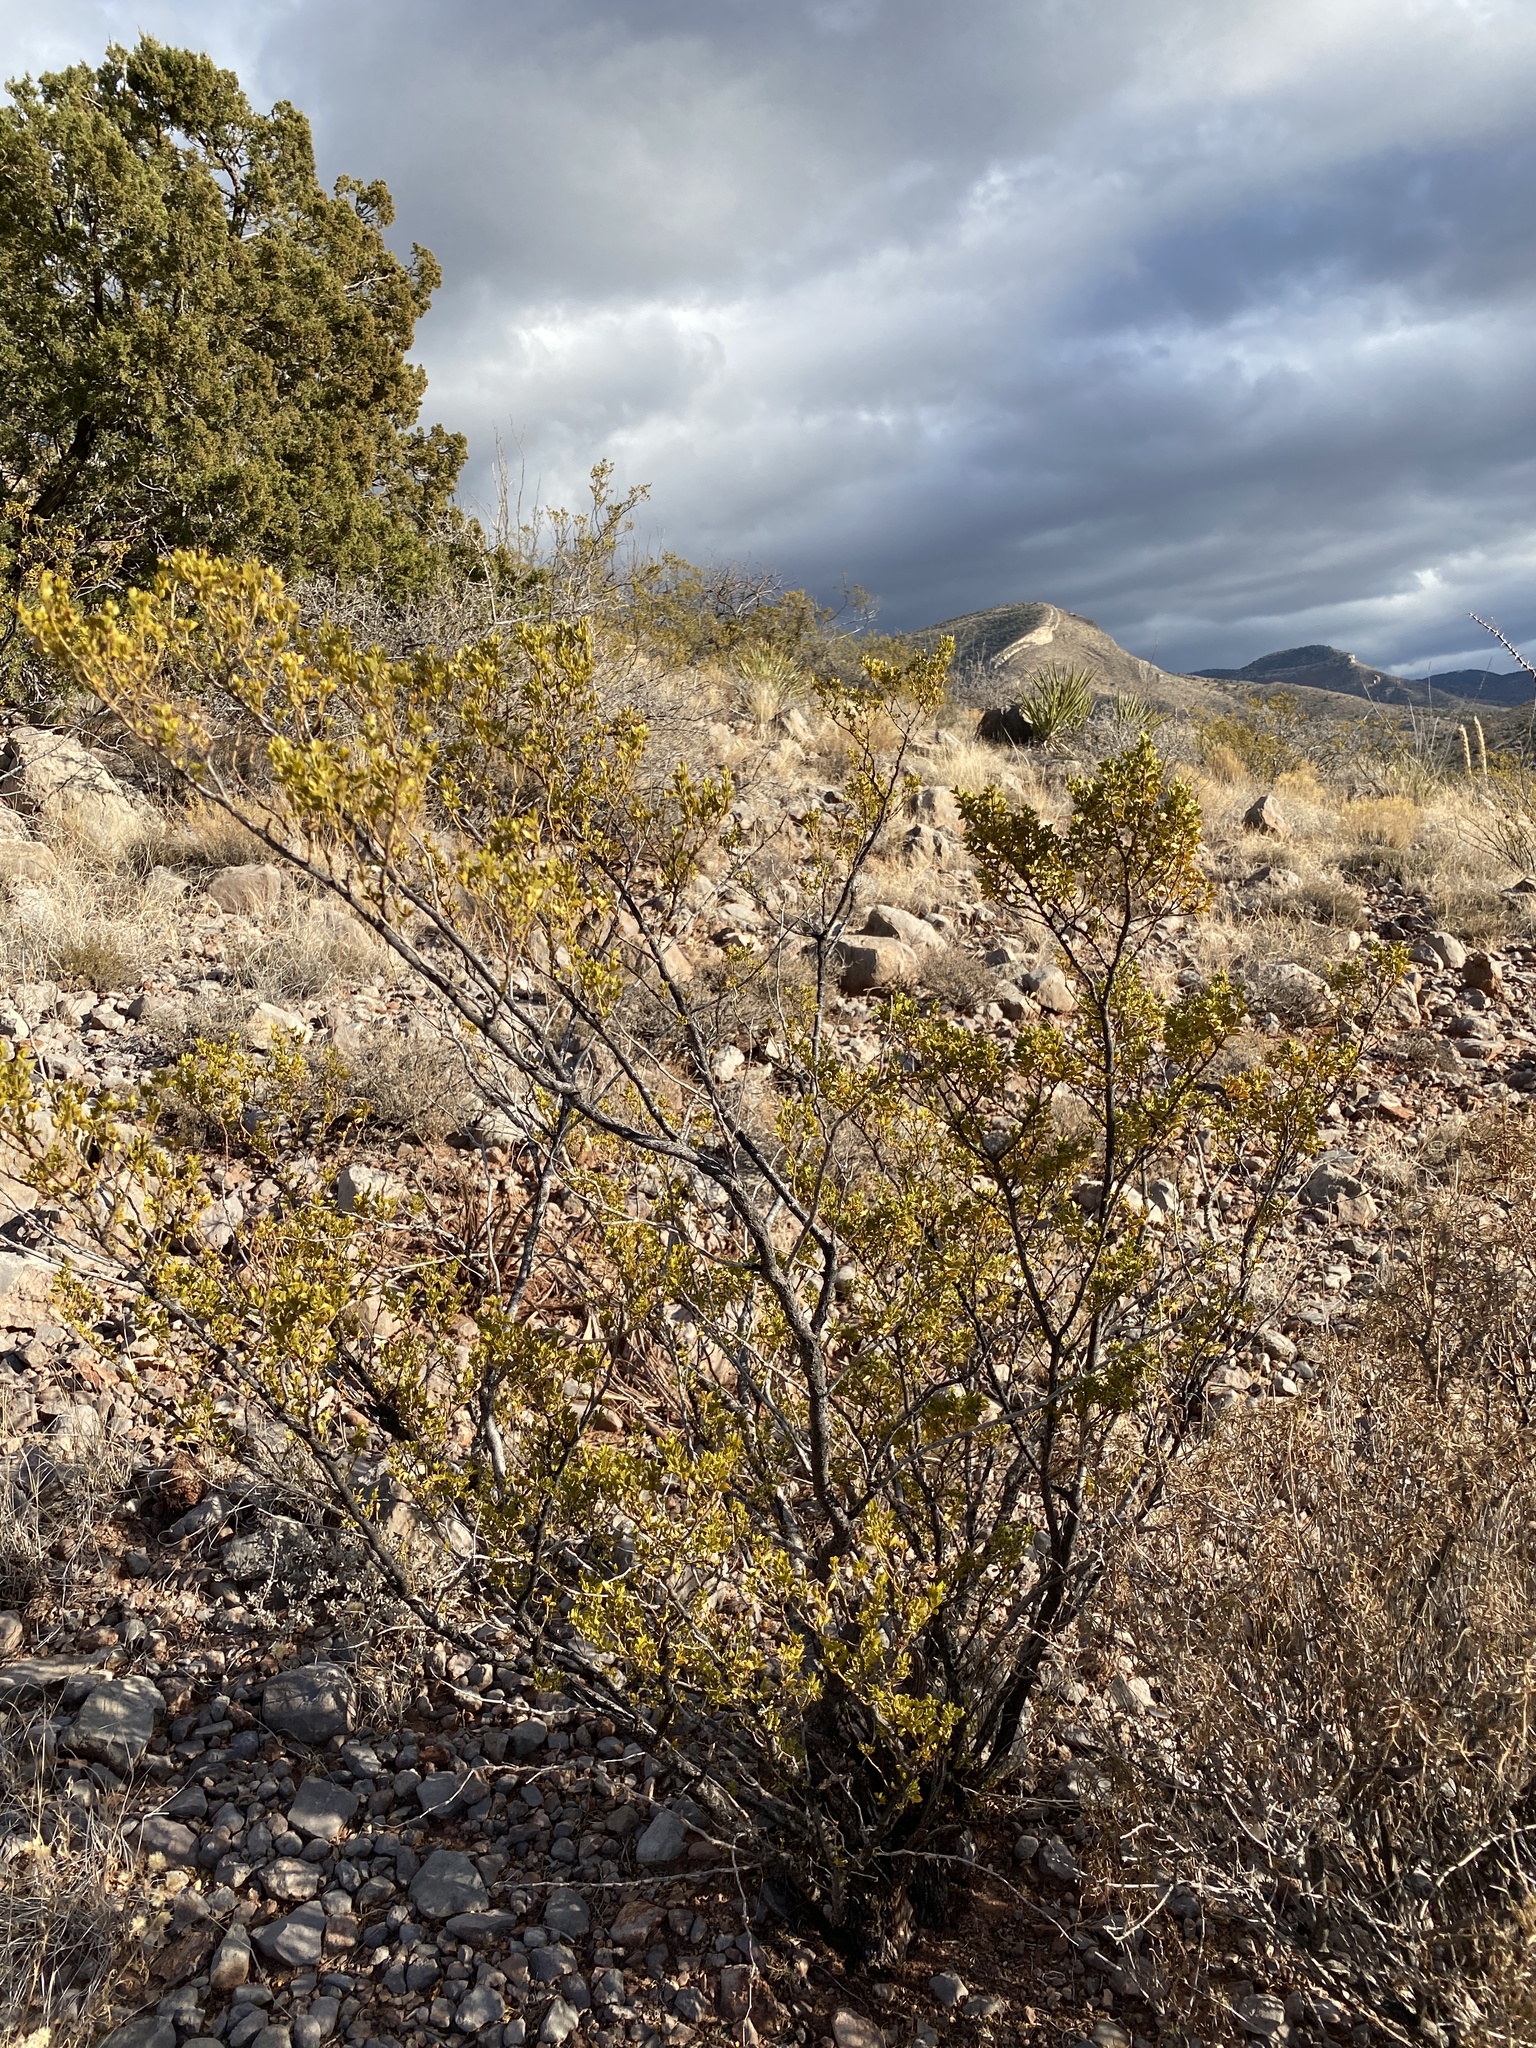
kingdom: Plantae
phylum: Tracheophyta
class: Magnoliopsida
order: Zygophyllales
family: Zygophyllaceae
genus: Larrea
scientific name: Larrea tridentata
